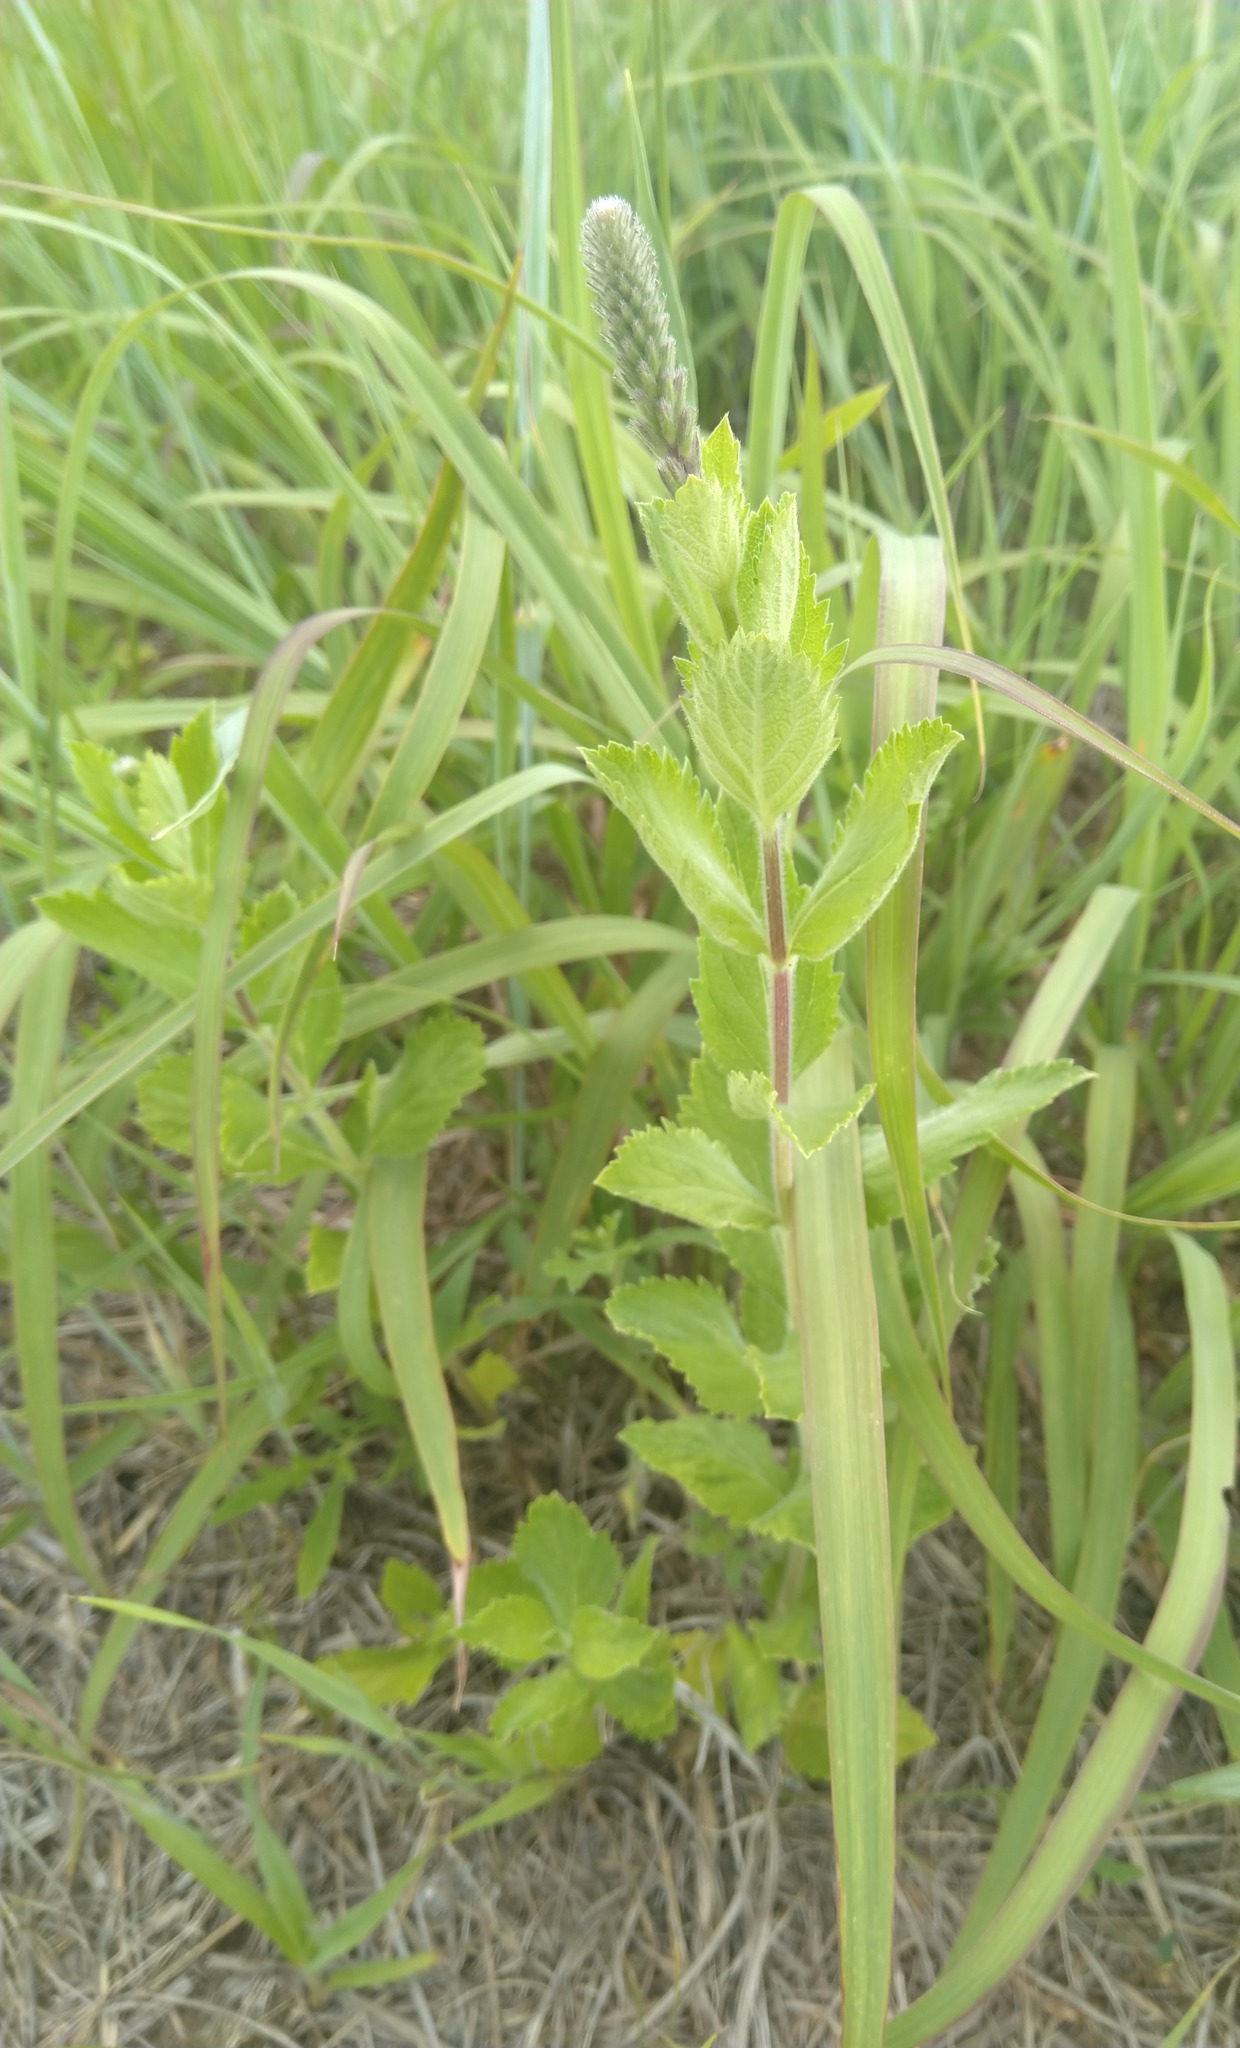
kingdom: Plantae
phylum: Tracheophyta
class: Magnoliopsida
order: Lamiales
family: Verbenaceae
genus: Verbena
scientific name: Verbena stricta
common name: Hoary vervain
